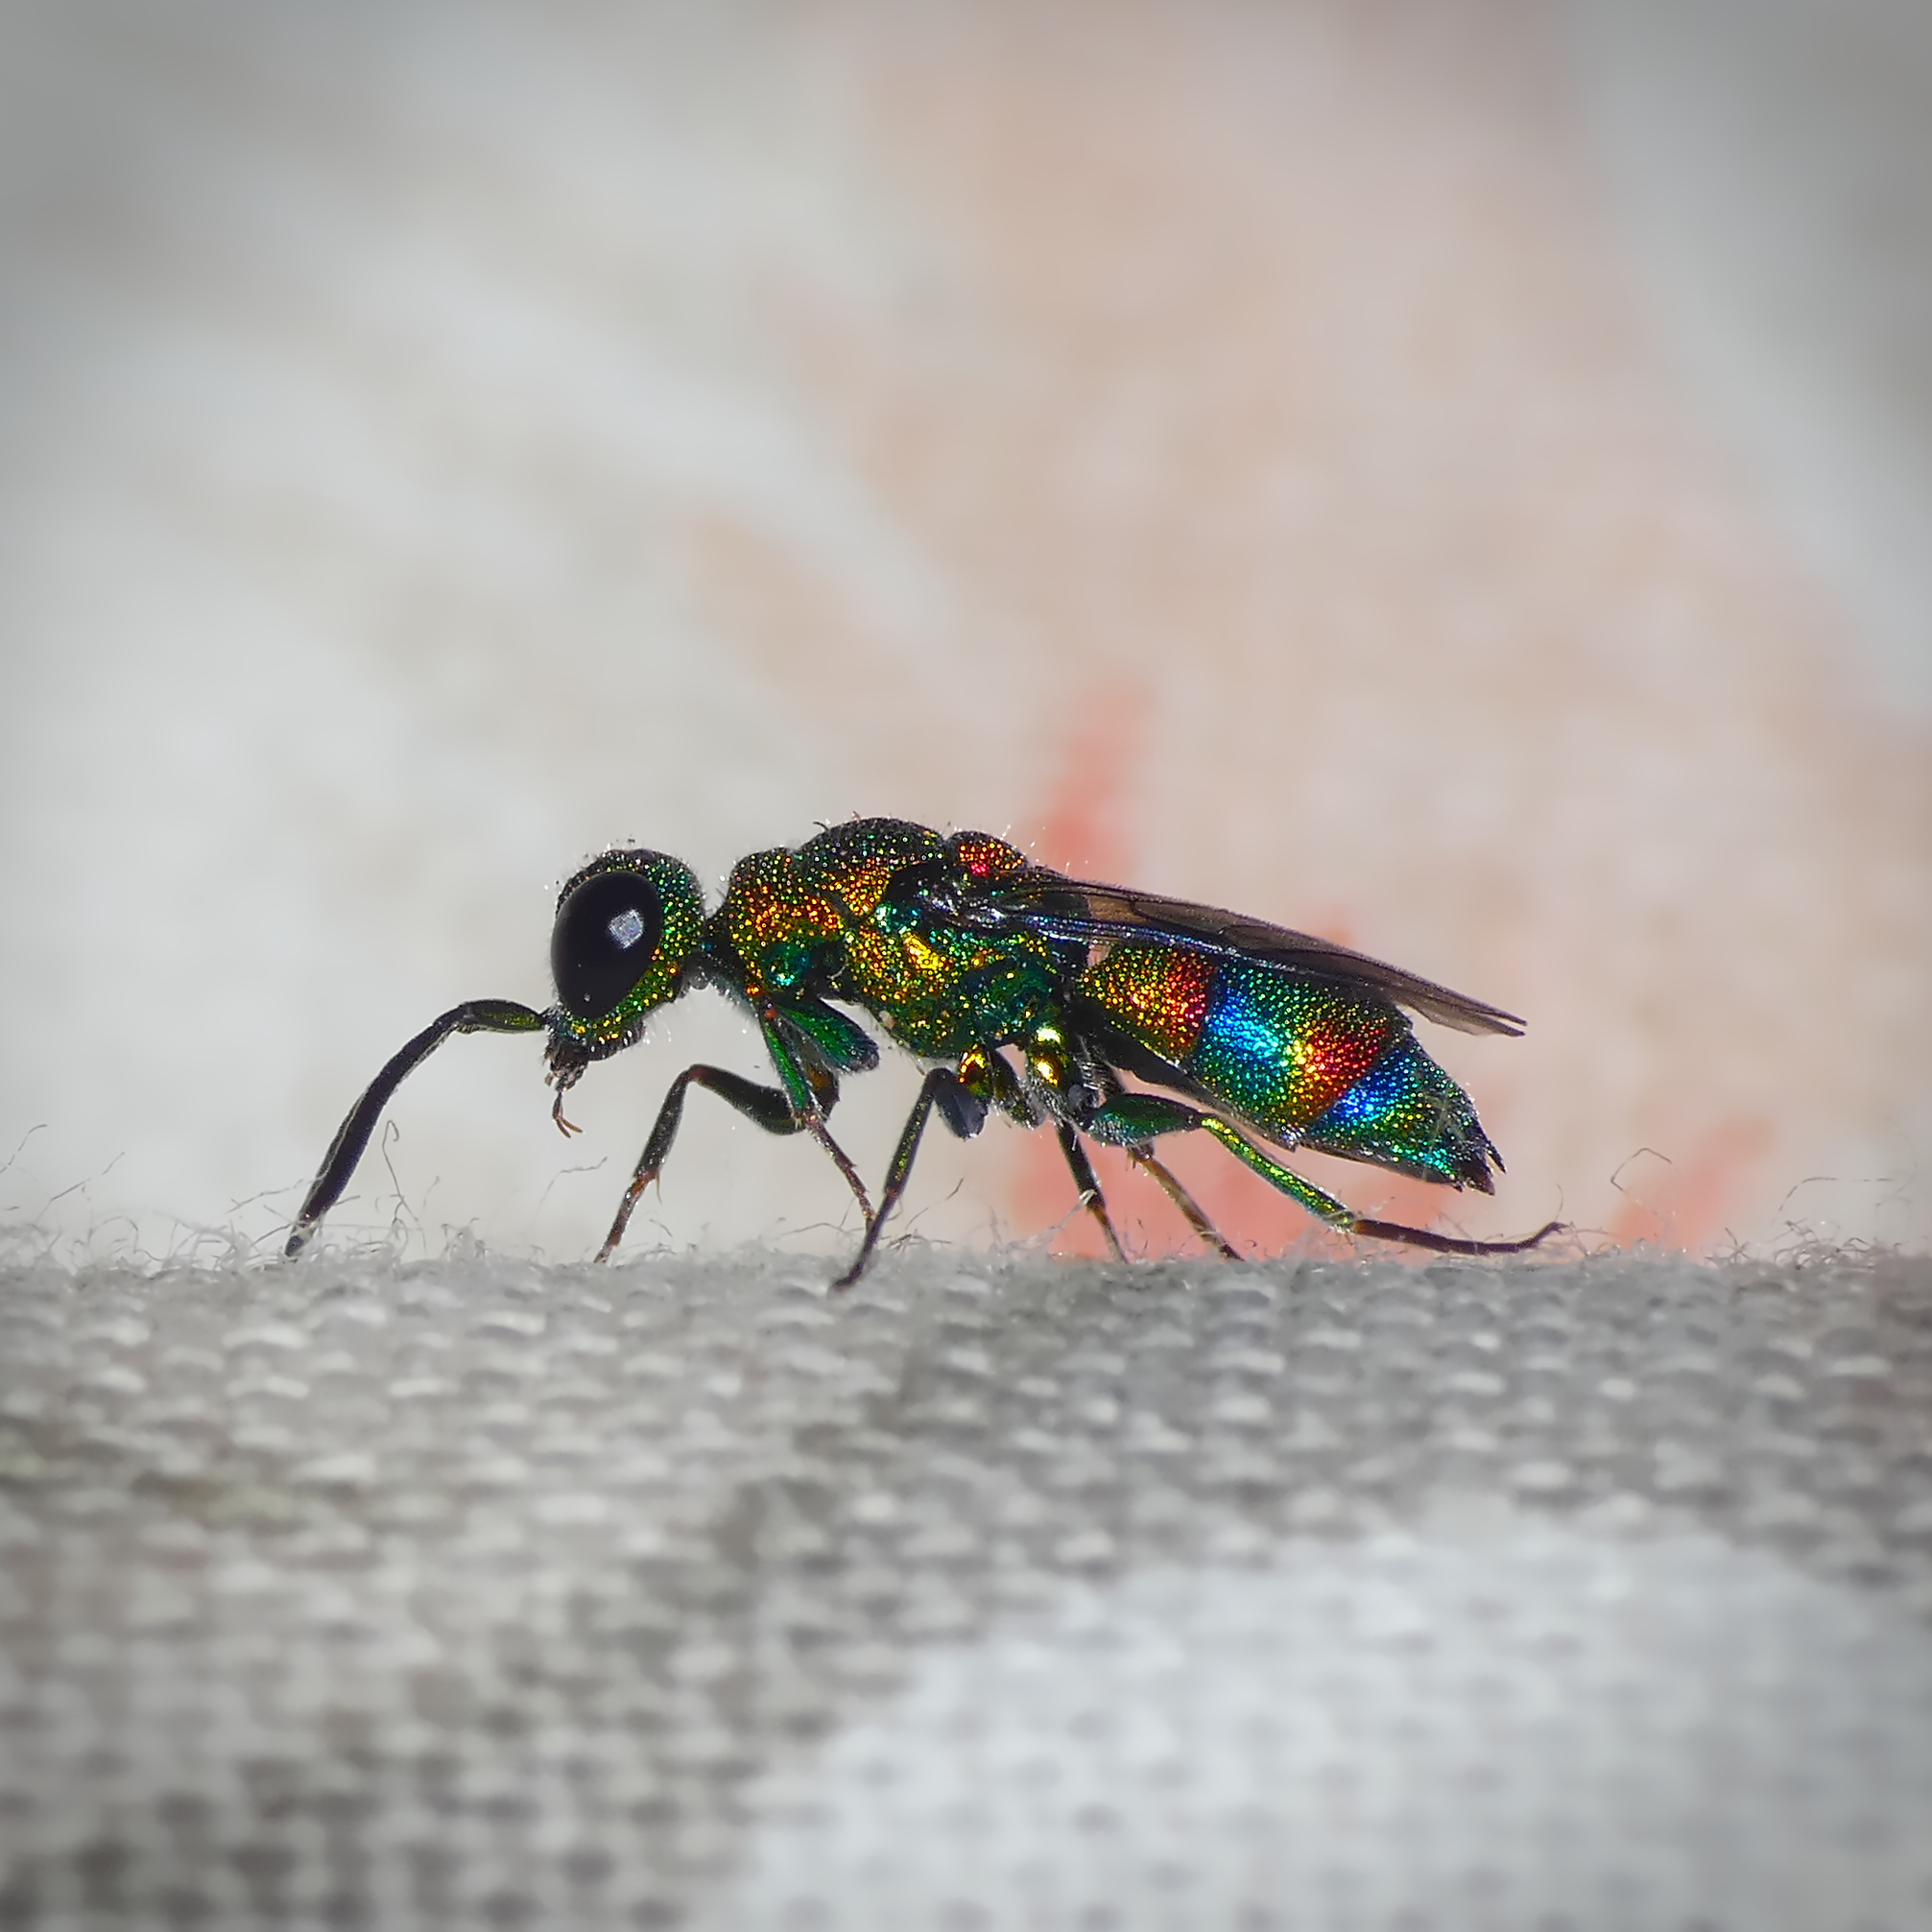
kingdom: Animalia
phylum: Arthropoda
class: Insecta
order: Hymenoptera
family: Chrysididae
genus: Chrysis
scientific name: Chrysis
